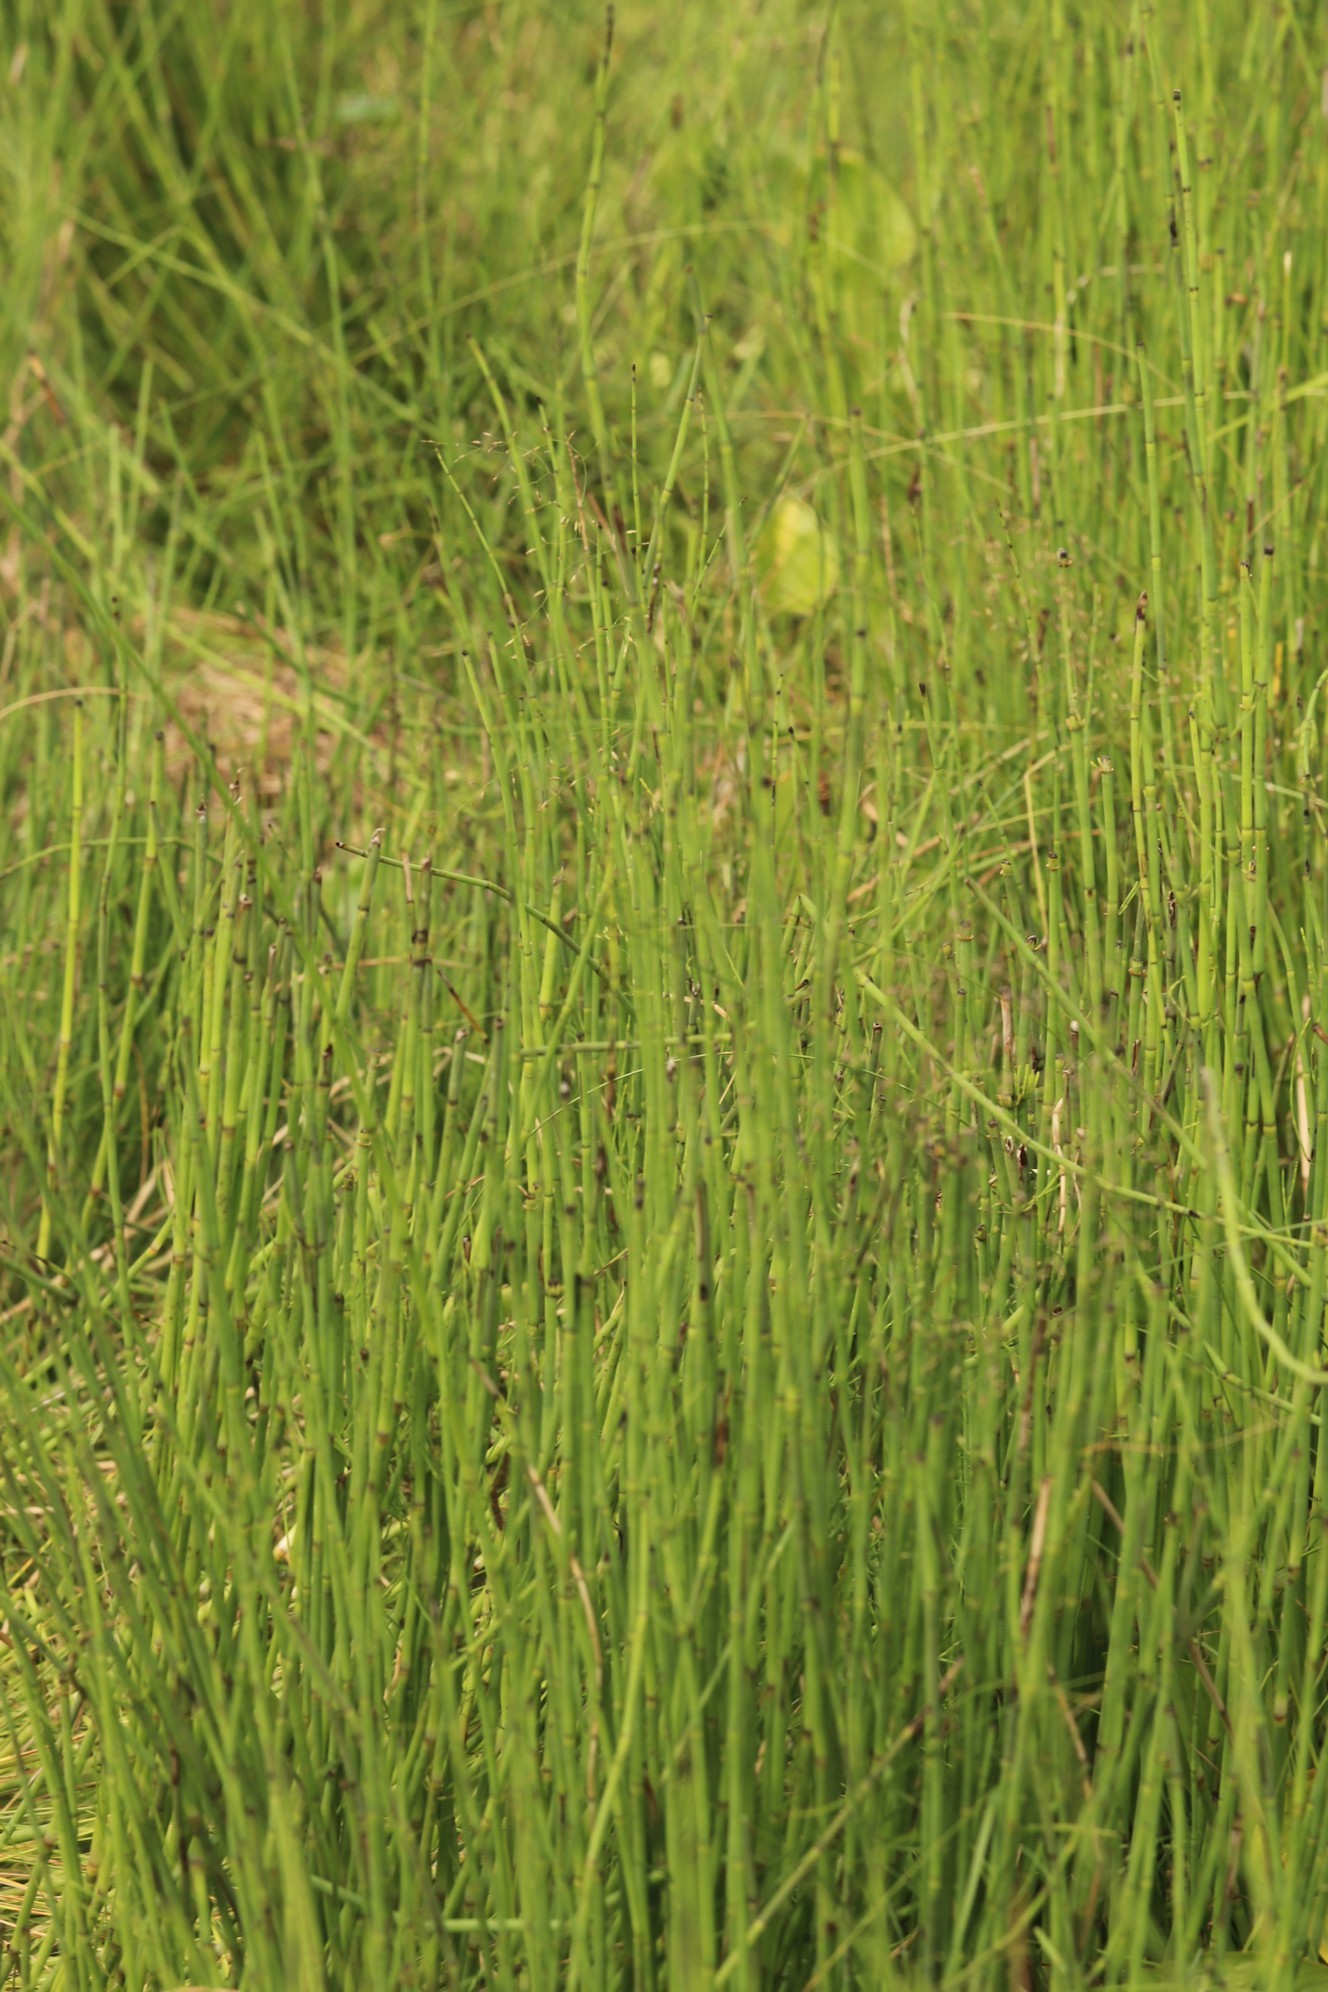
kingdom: Plantae
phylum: Tracheophyta
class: Polypodiopsida
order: Equisetales
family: Equisetaceae
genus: Equisetum
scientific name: Equisetum fluviatile
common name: Water horsetail
